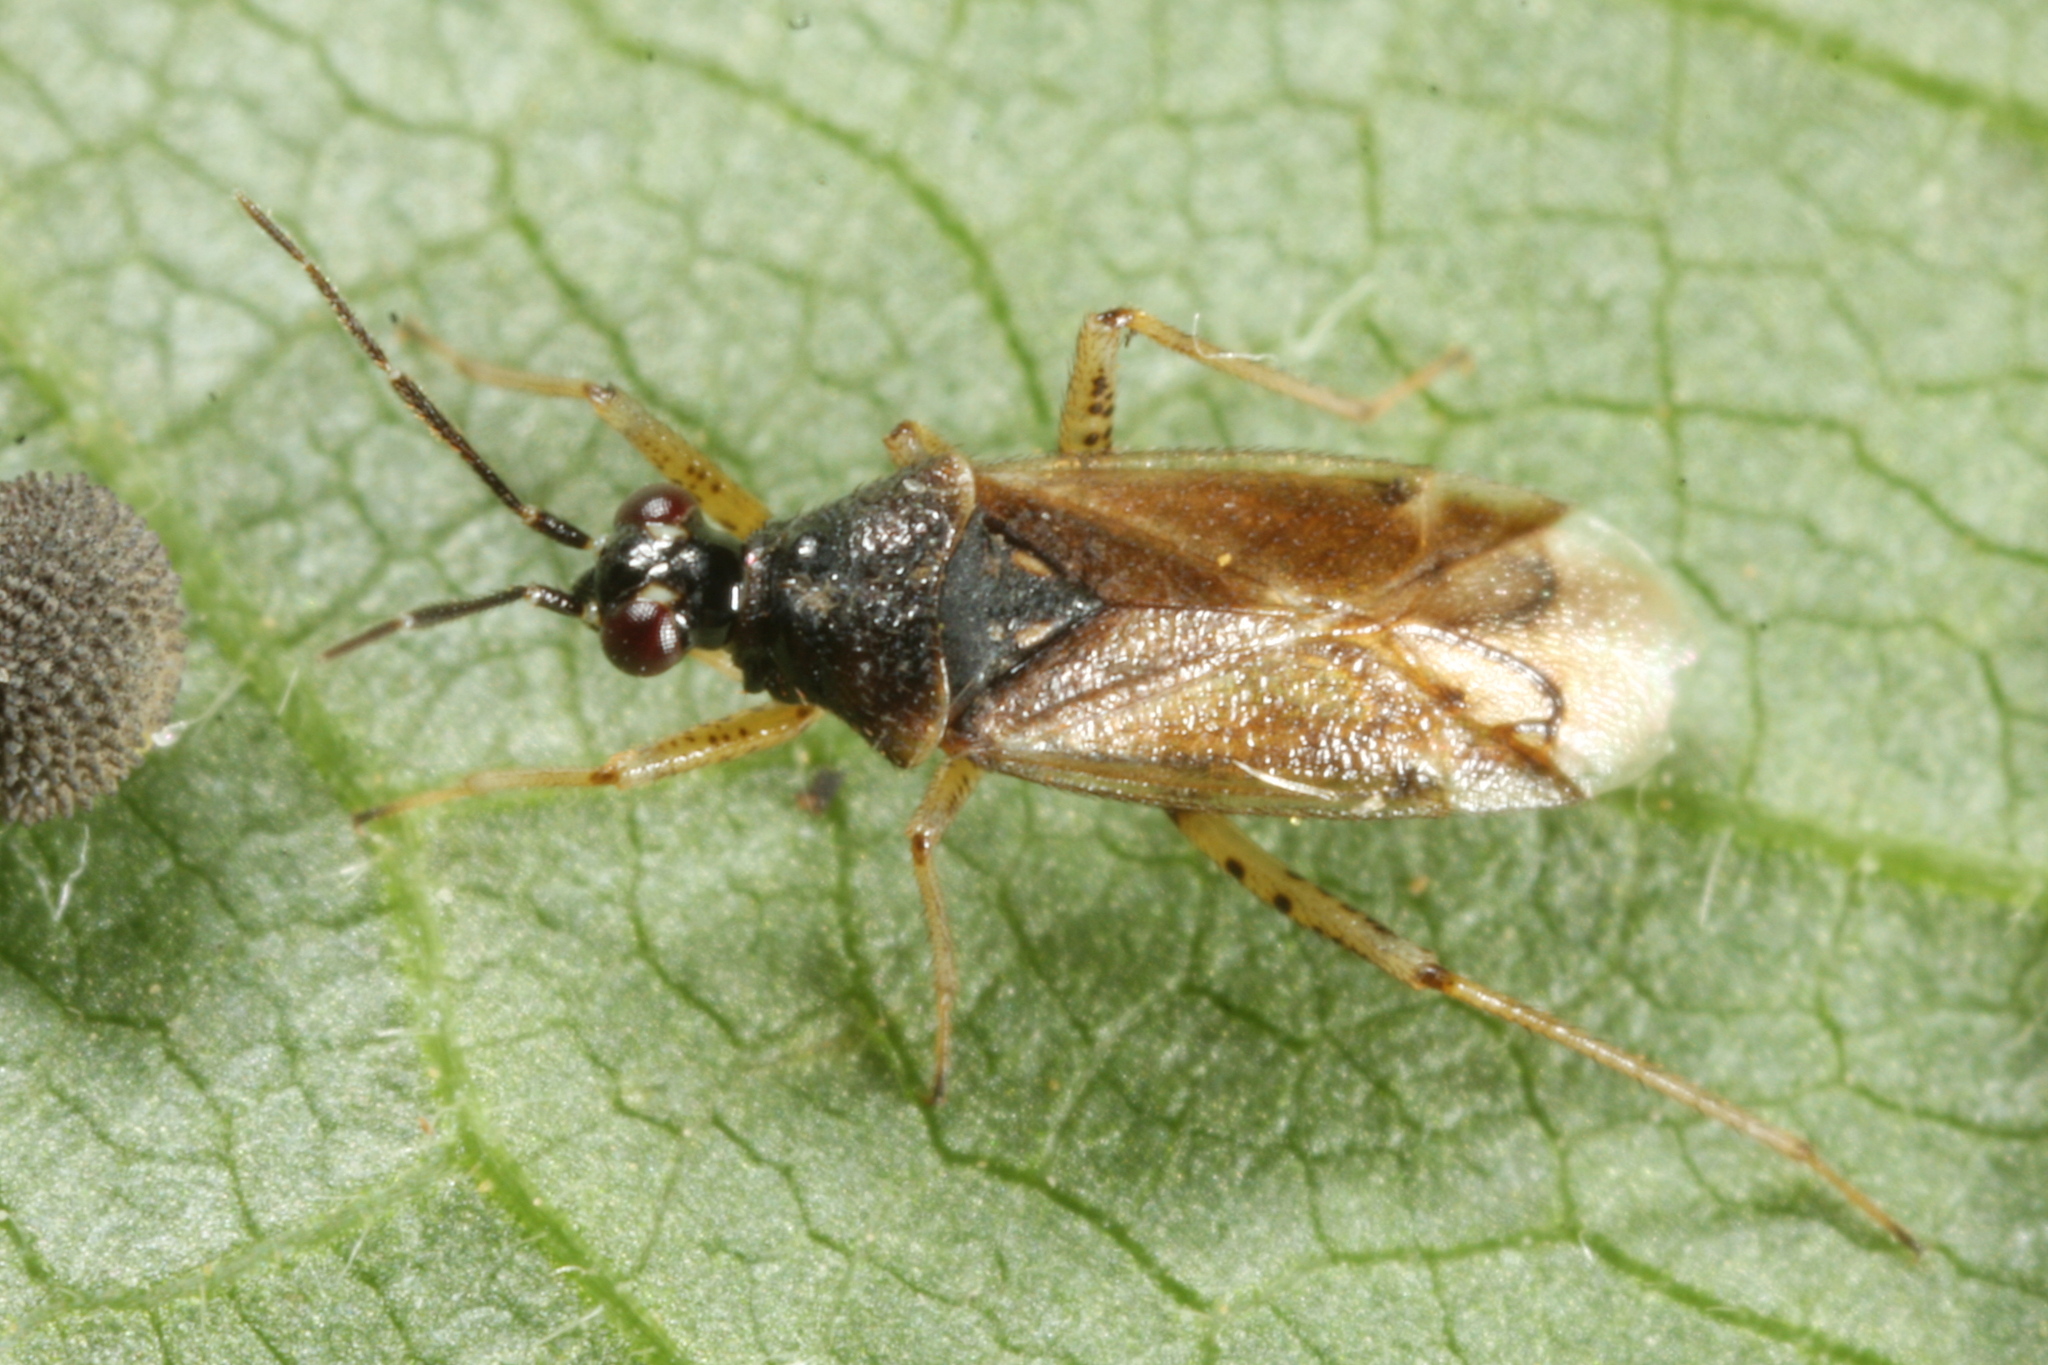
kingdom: Animalia
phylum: Arthropoda
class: Insecta
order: Hemiptera
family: Miridae
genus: Dicyphus
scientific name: Dicyphus globulifer
